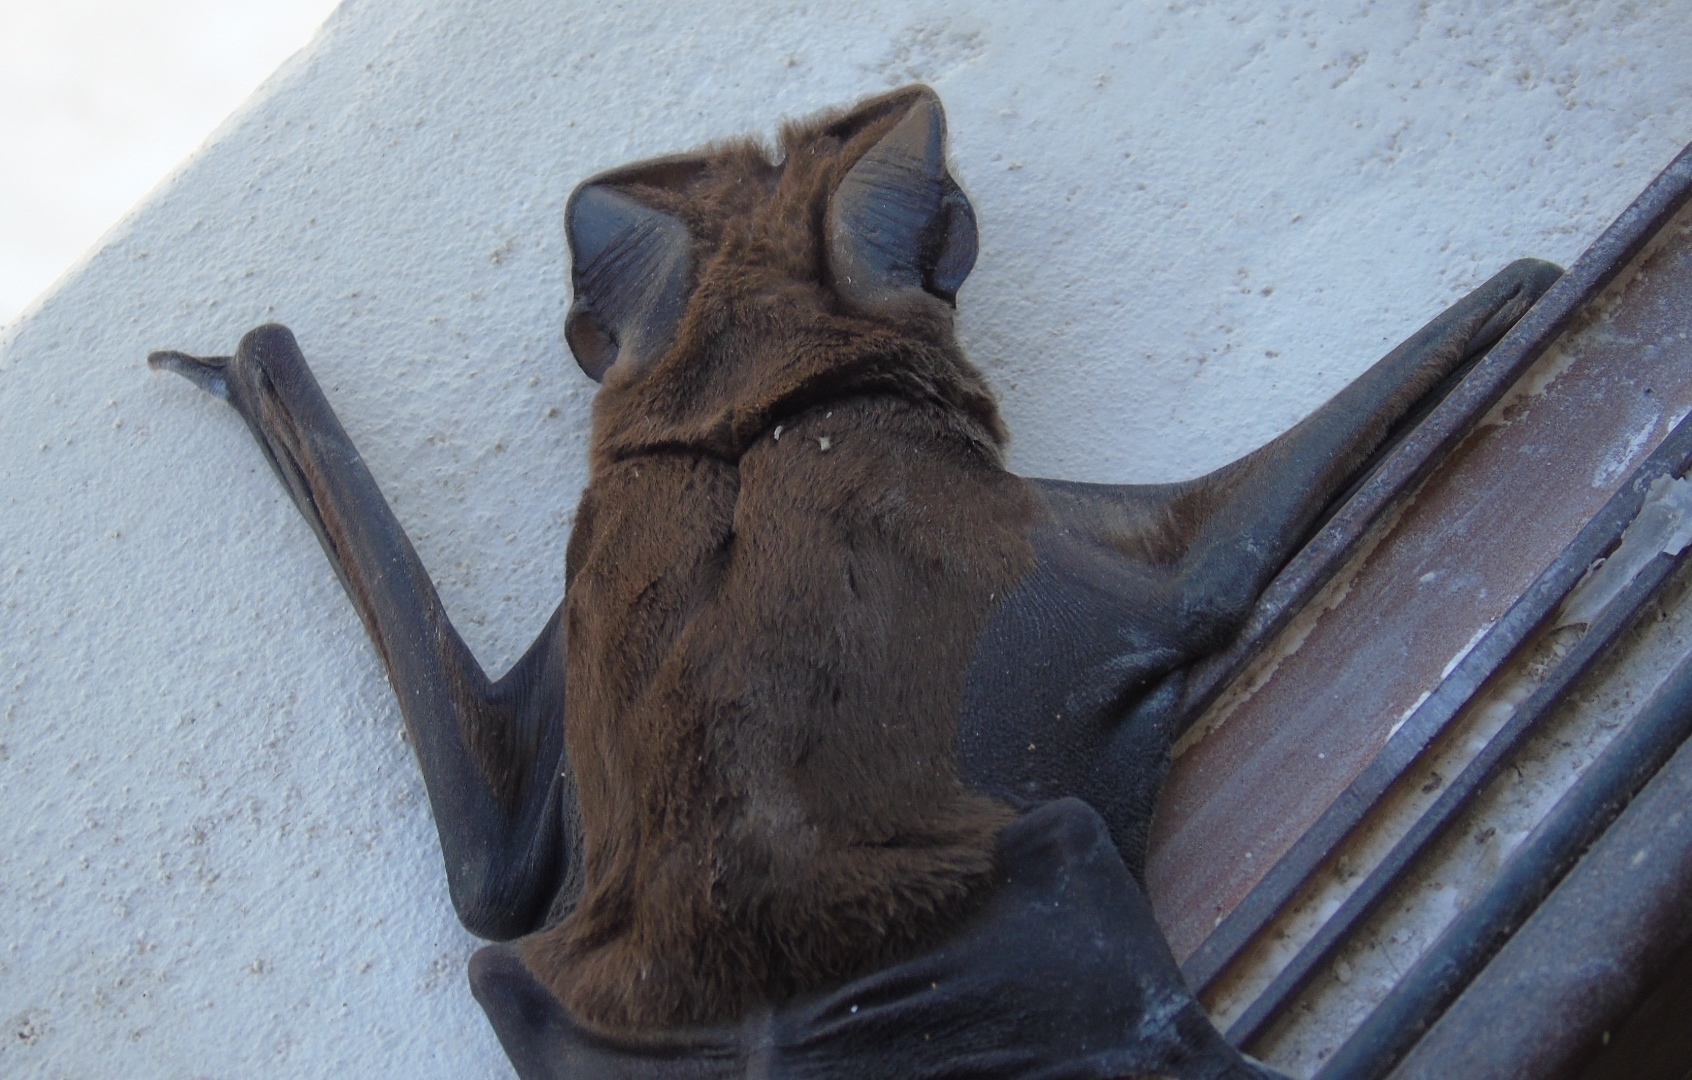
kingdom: Animalia
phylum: Chordata
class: Mammalia
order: Chiroptera
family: Molossidae
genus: Eumops
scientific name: Eumops perotis
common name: Greater bonneted bat
